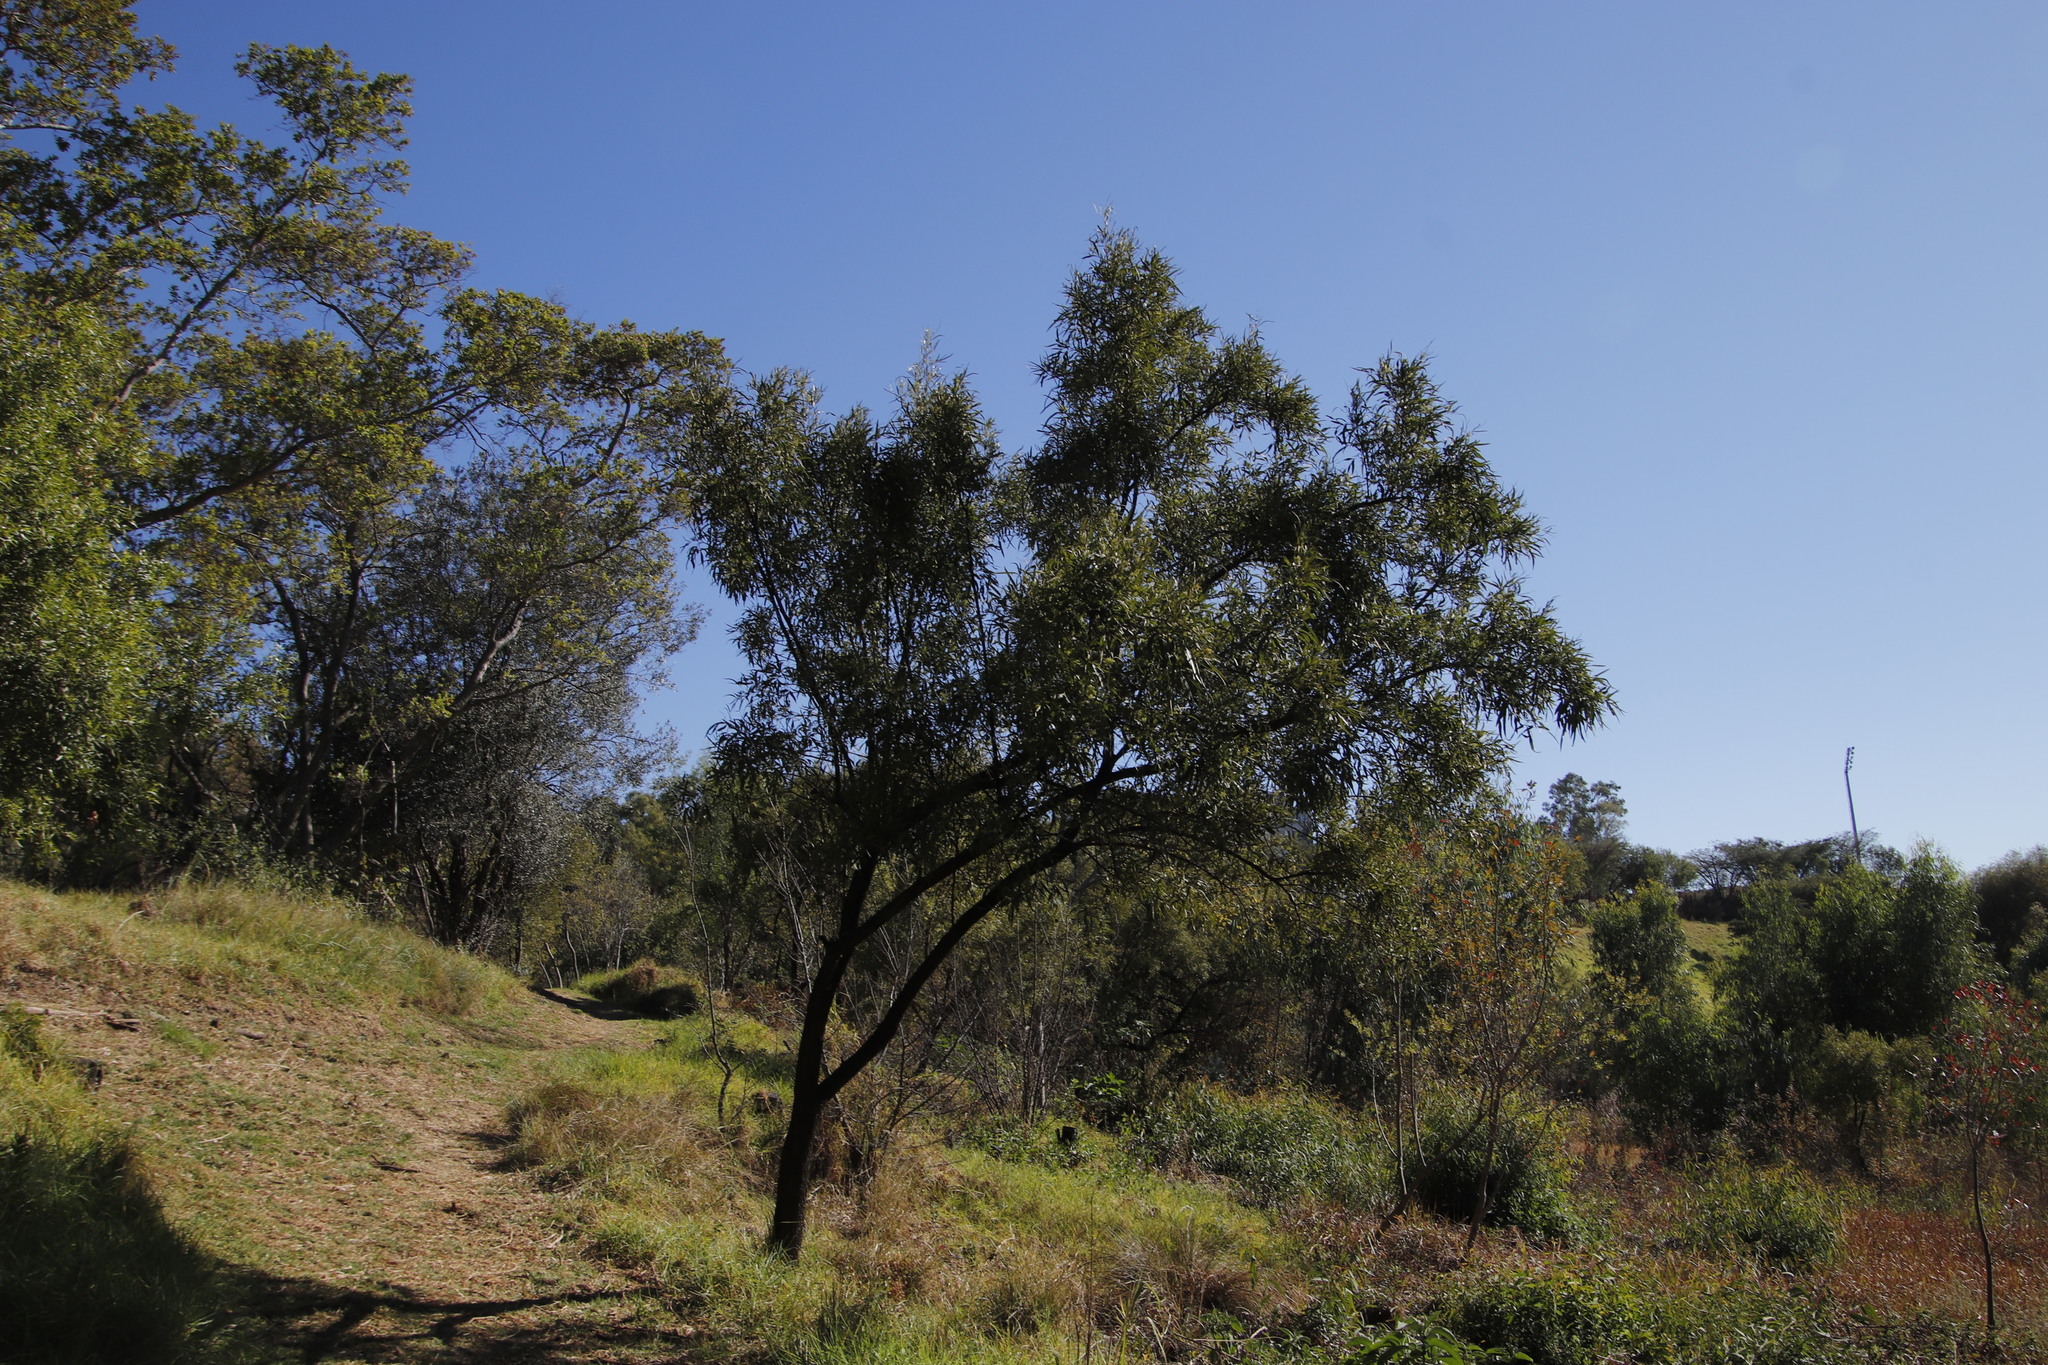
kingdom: Plantae
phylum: Tracheophyta
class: Magnoliopsida
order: Sapindales
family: Anacardiaceae
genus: Searsia
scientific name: Searsia lancea
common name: Cashew
